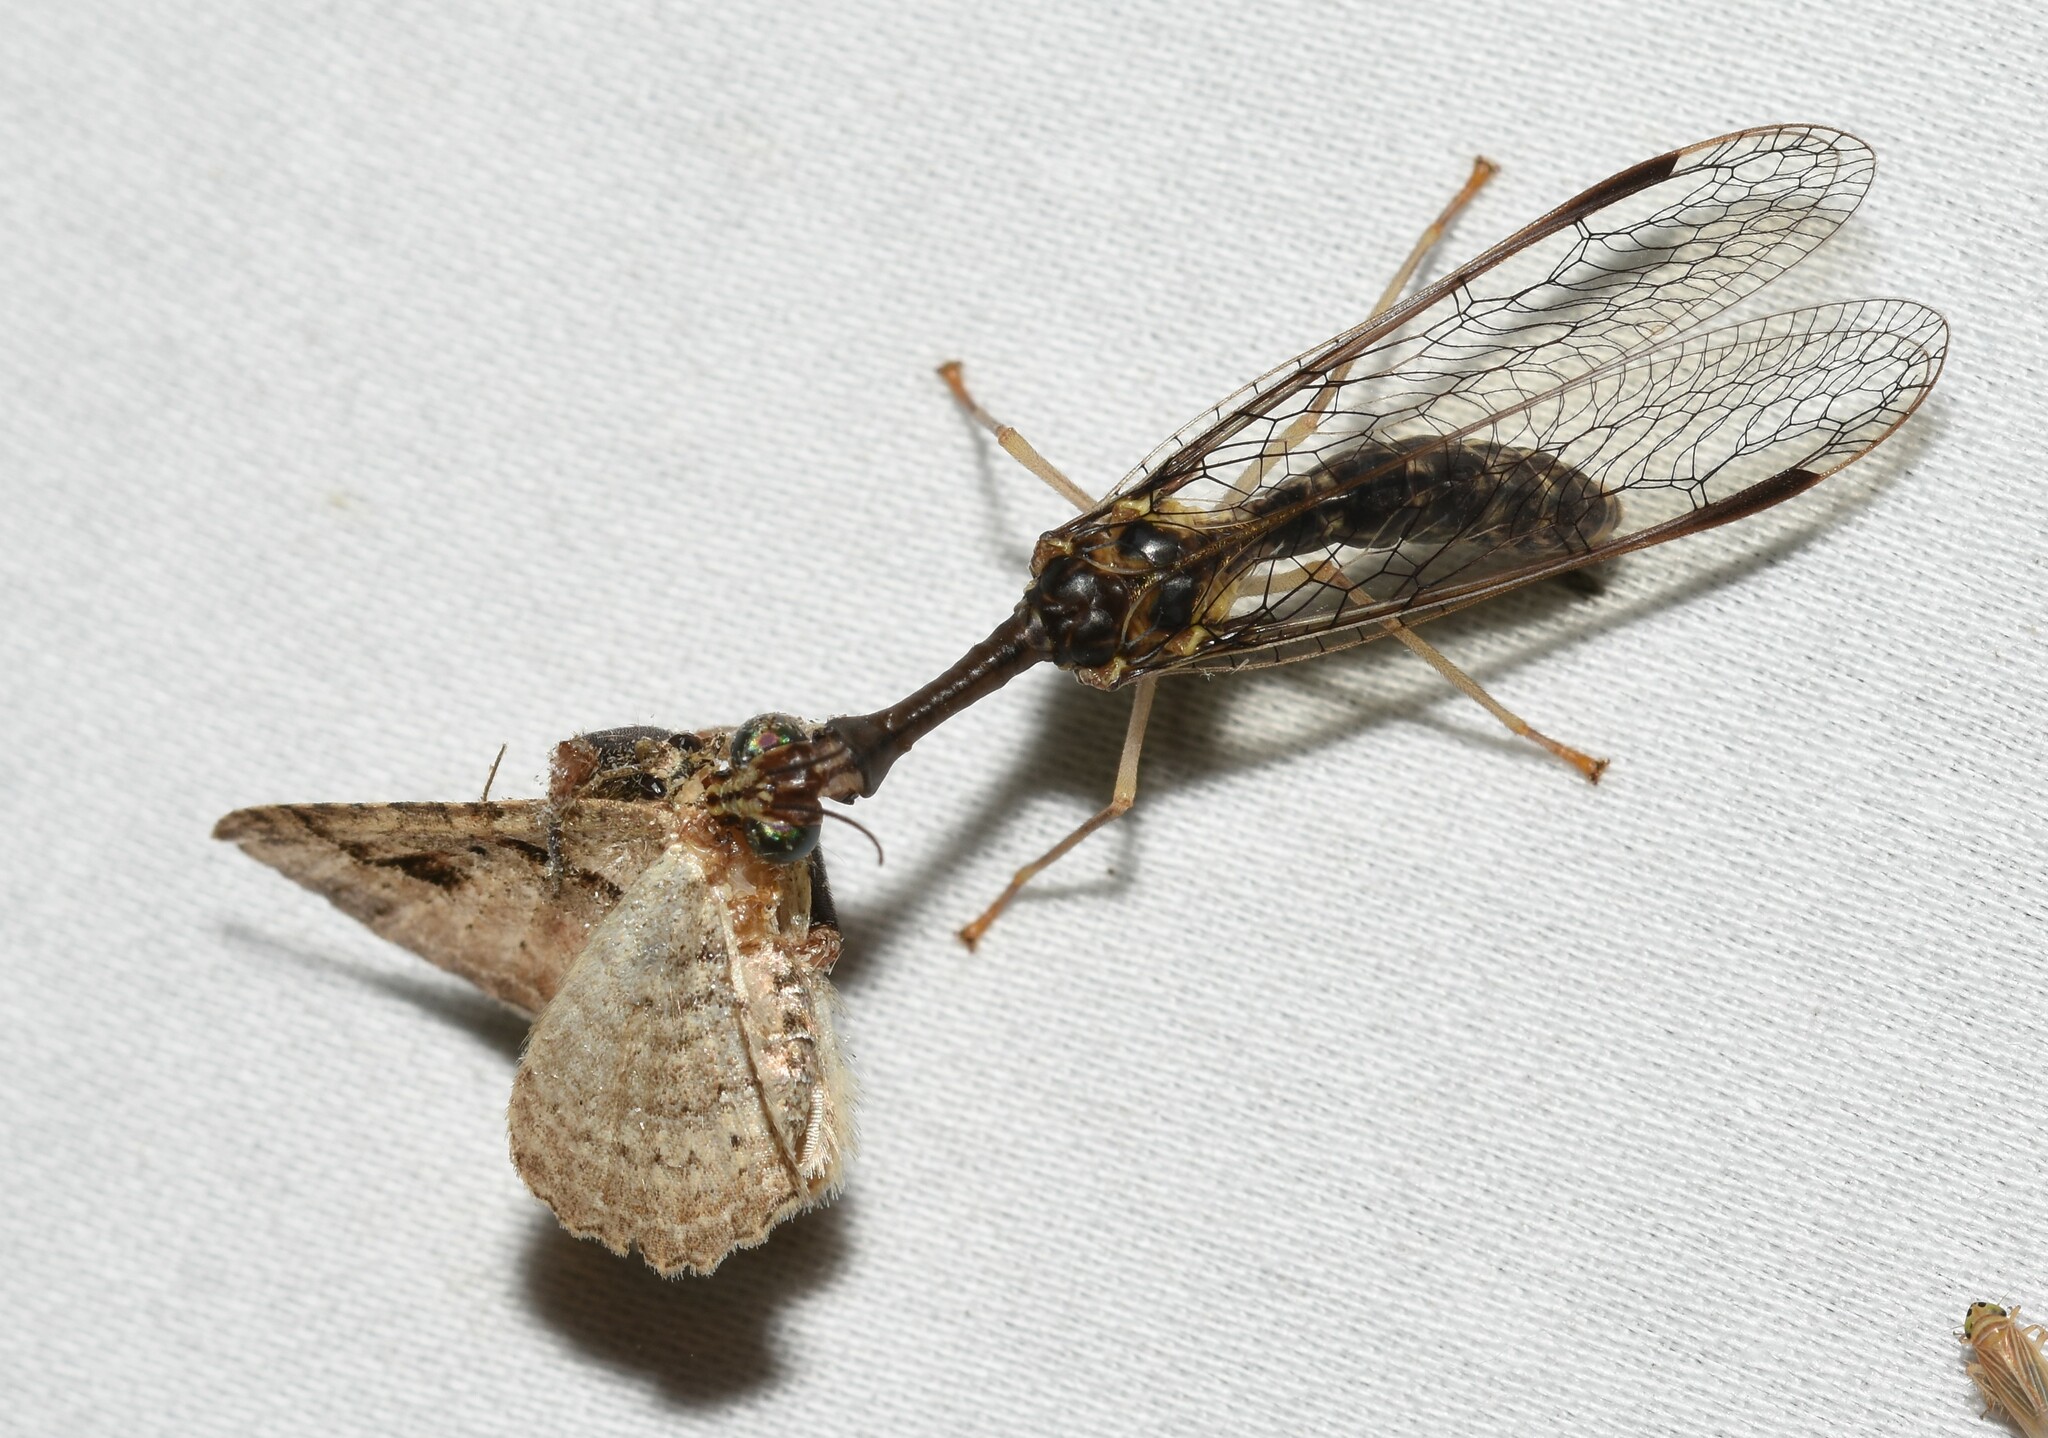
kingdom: Animalia
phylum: Arthropoda
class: Insecta
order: Neuroptera
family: Mantispidae
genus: Dicromantispa
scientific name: Dicromantispa sayi
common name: Say's mantidfly
